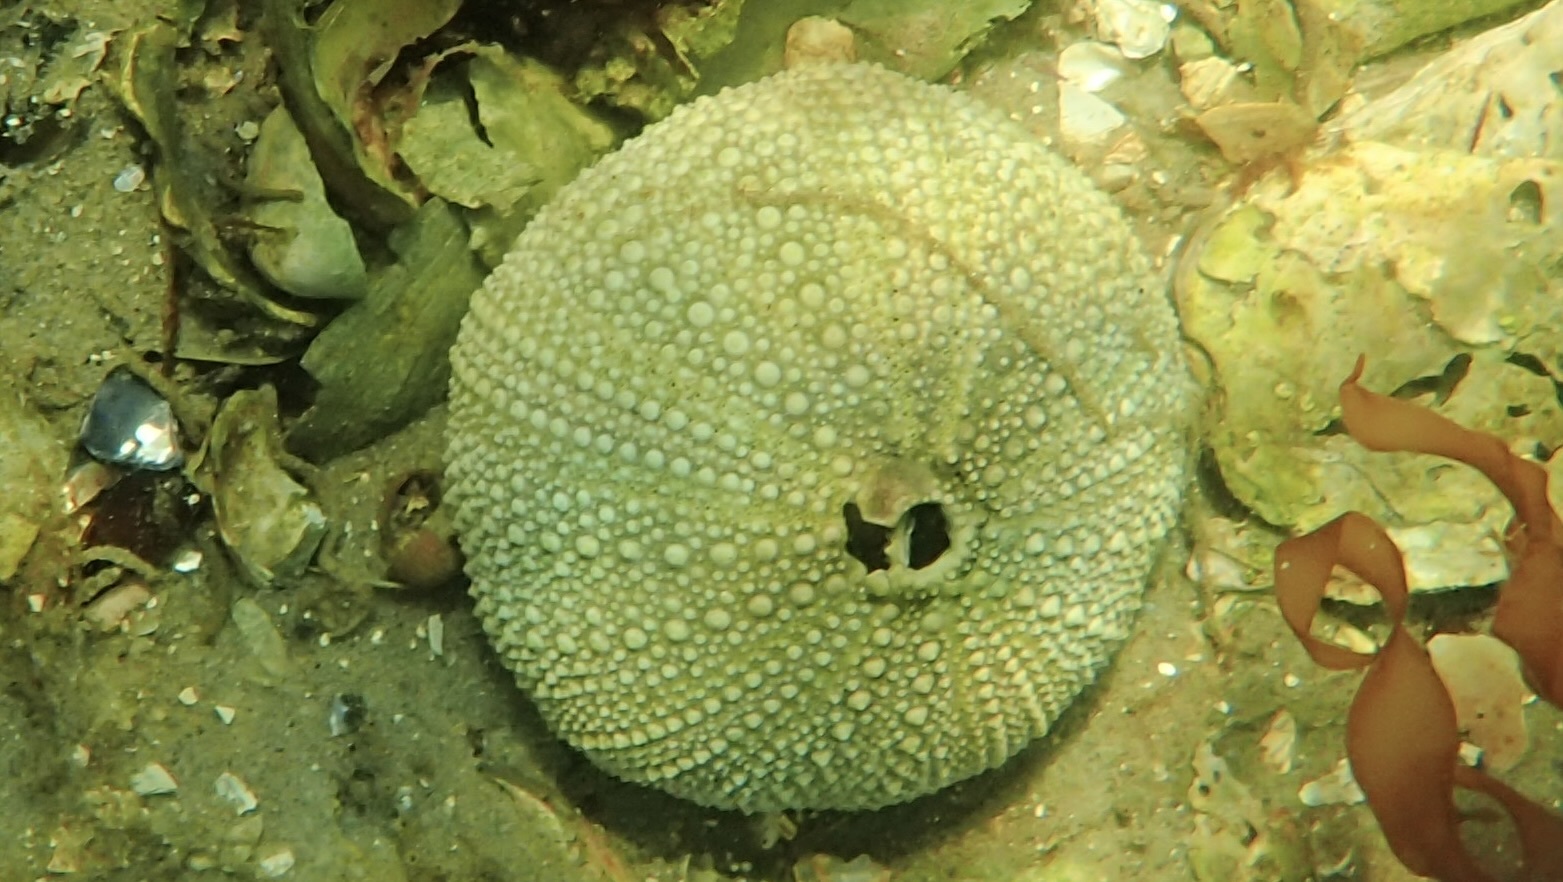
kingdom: Animalia
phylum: Echinodermata
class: Echinoidea
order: Camarodonta
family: Parechinidae
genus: Psammechinus
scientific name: Psammechinus miliaris
